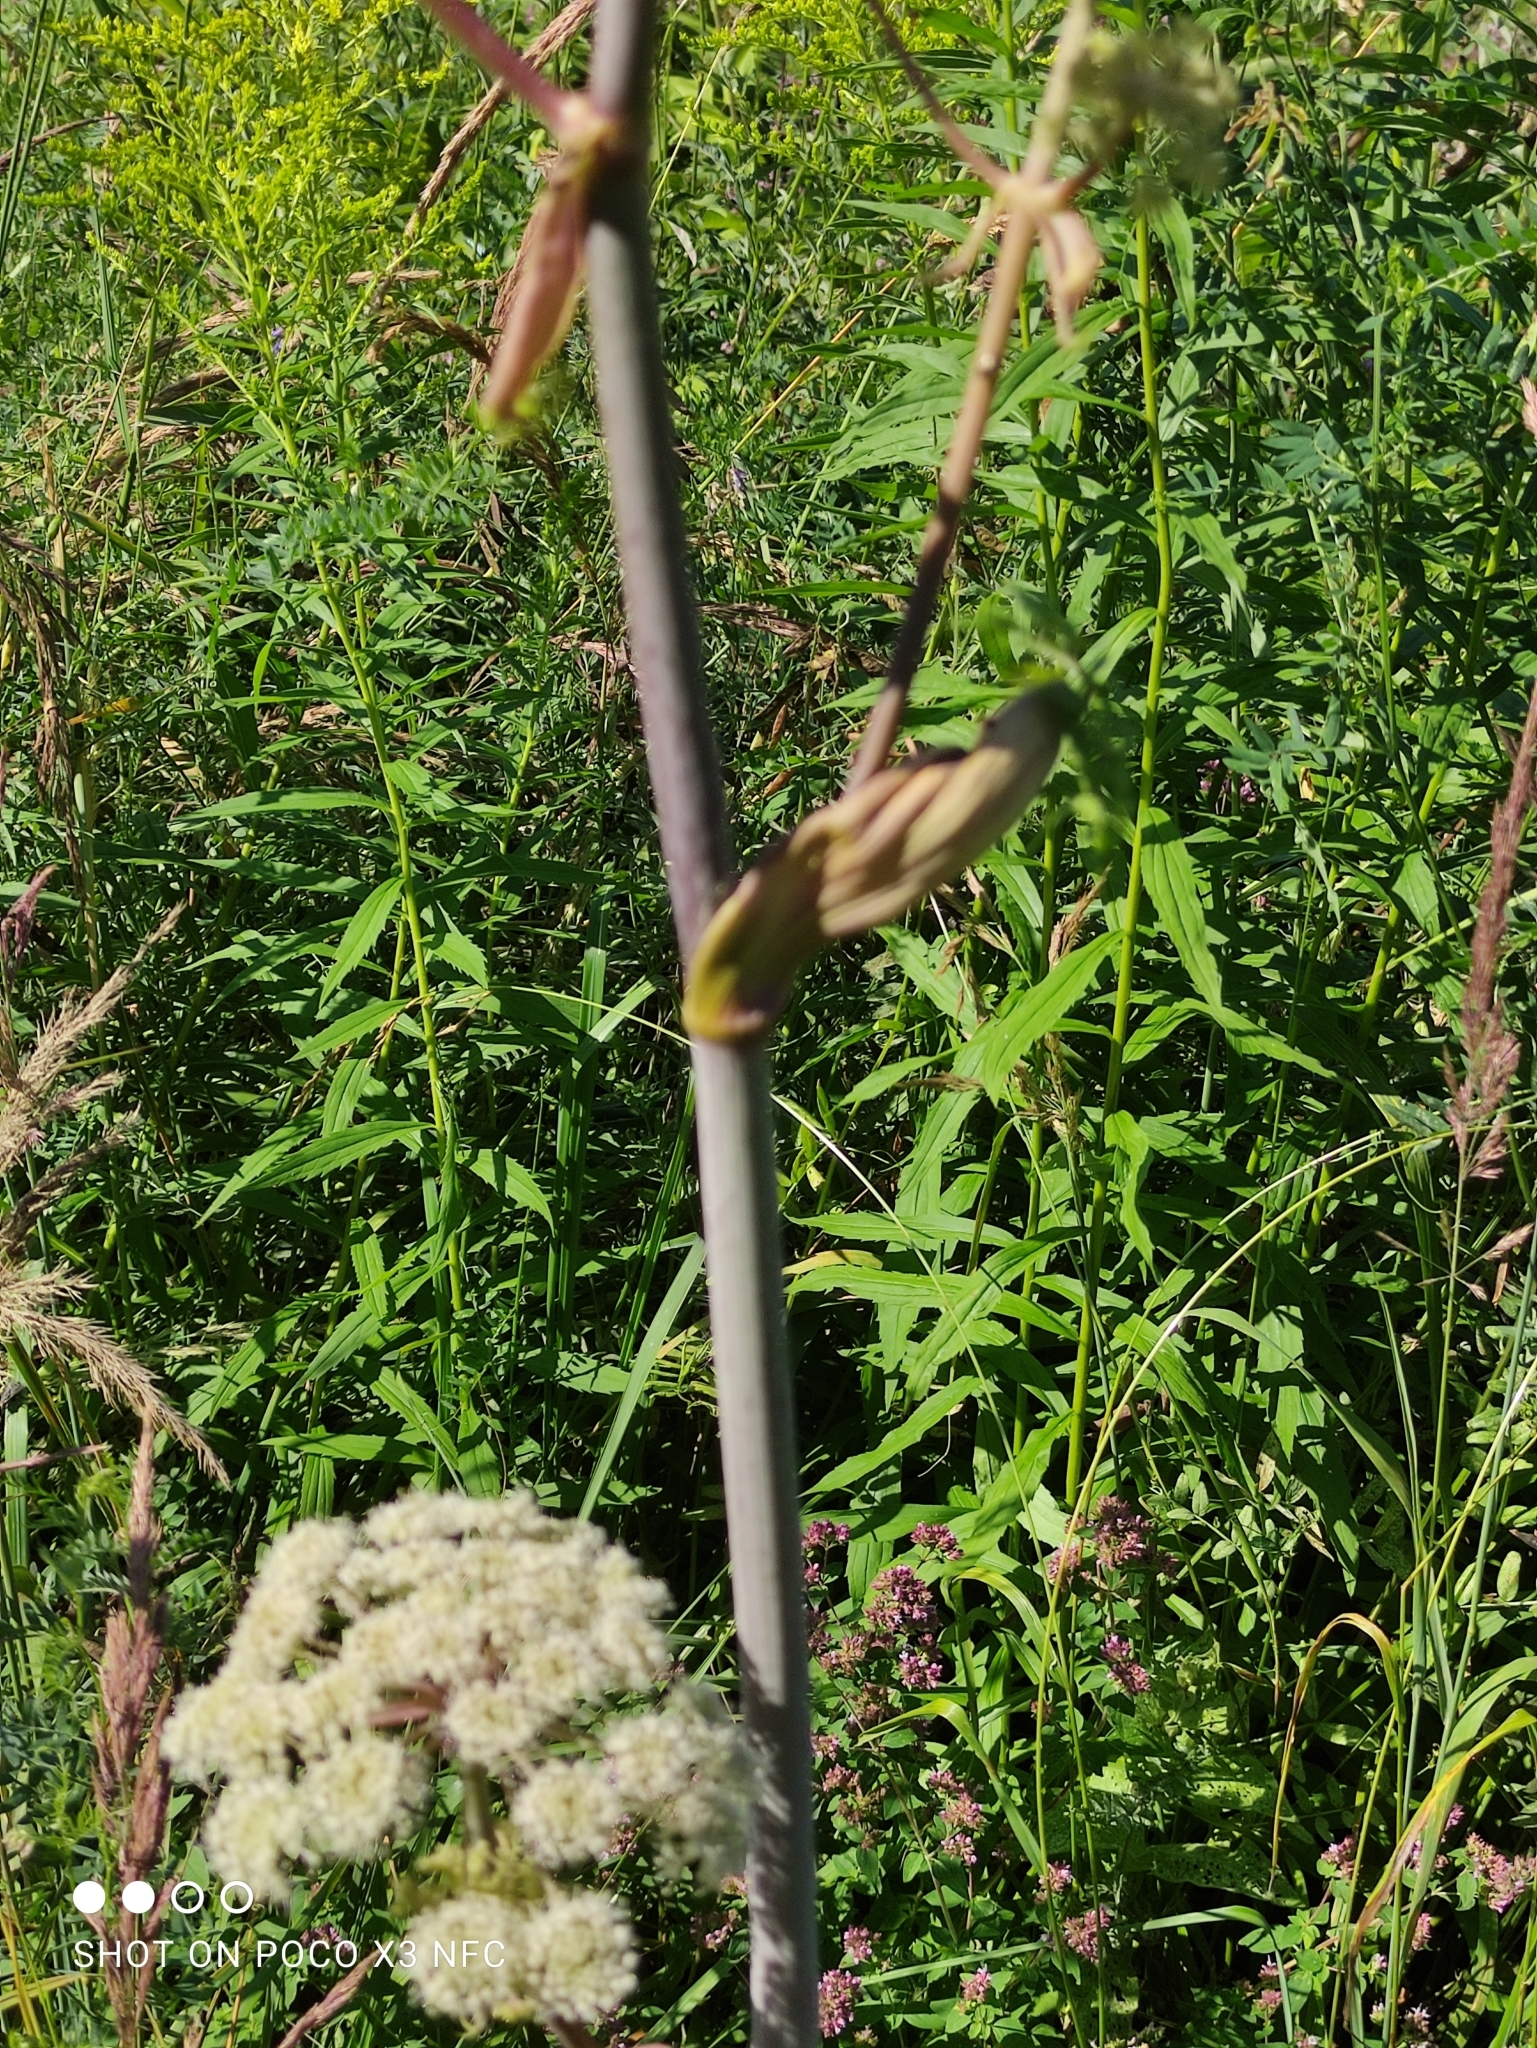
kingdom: Plantae
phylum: Tracheophyta
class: Magnoliopsida
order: Apiales
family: Apiaceae
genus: Angelica
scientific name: Angelica sylvestris
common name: Wild angelica
